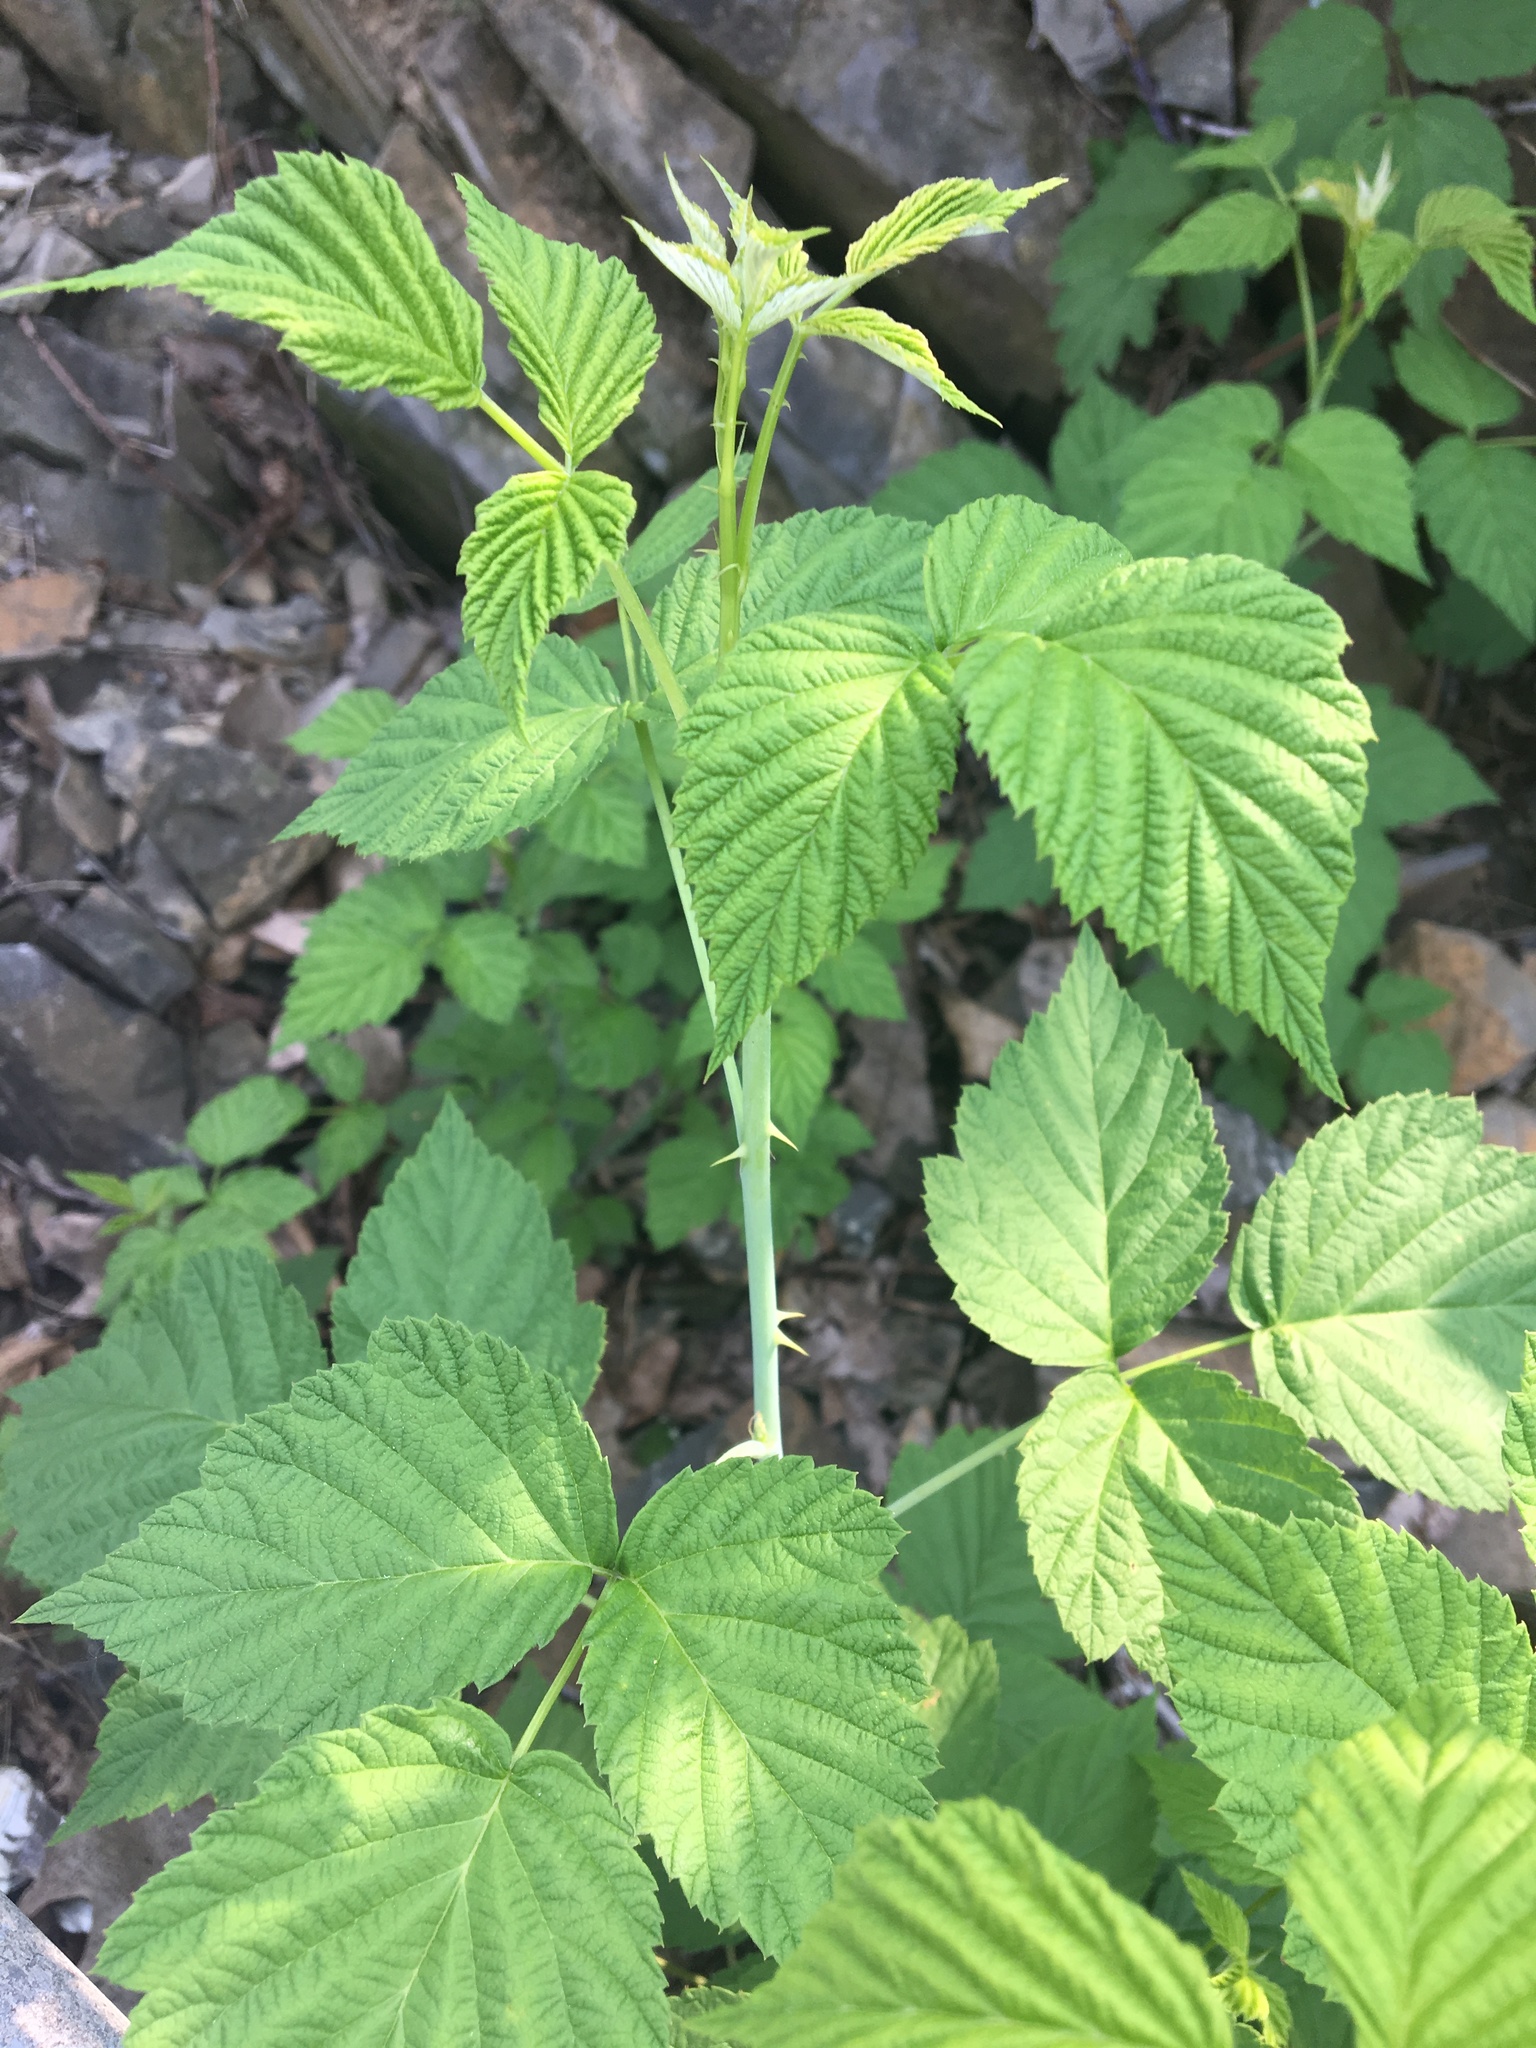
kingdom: Plantae
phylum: Tracheophyta
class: Magnoliopsida
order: Rosales
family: Rosaceae
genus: Rubus
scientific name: Rubus occidentalis
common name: Black raspberry
